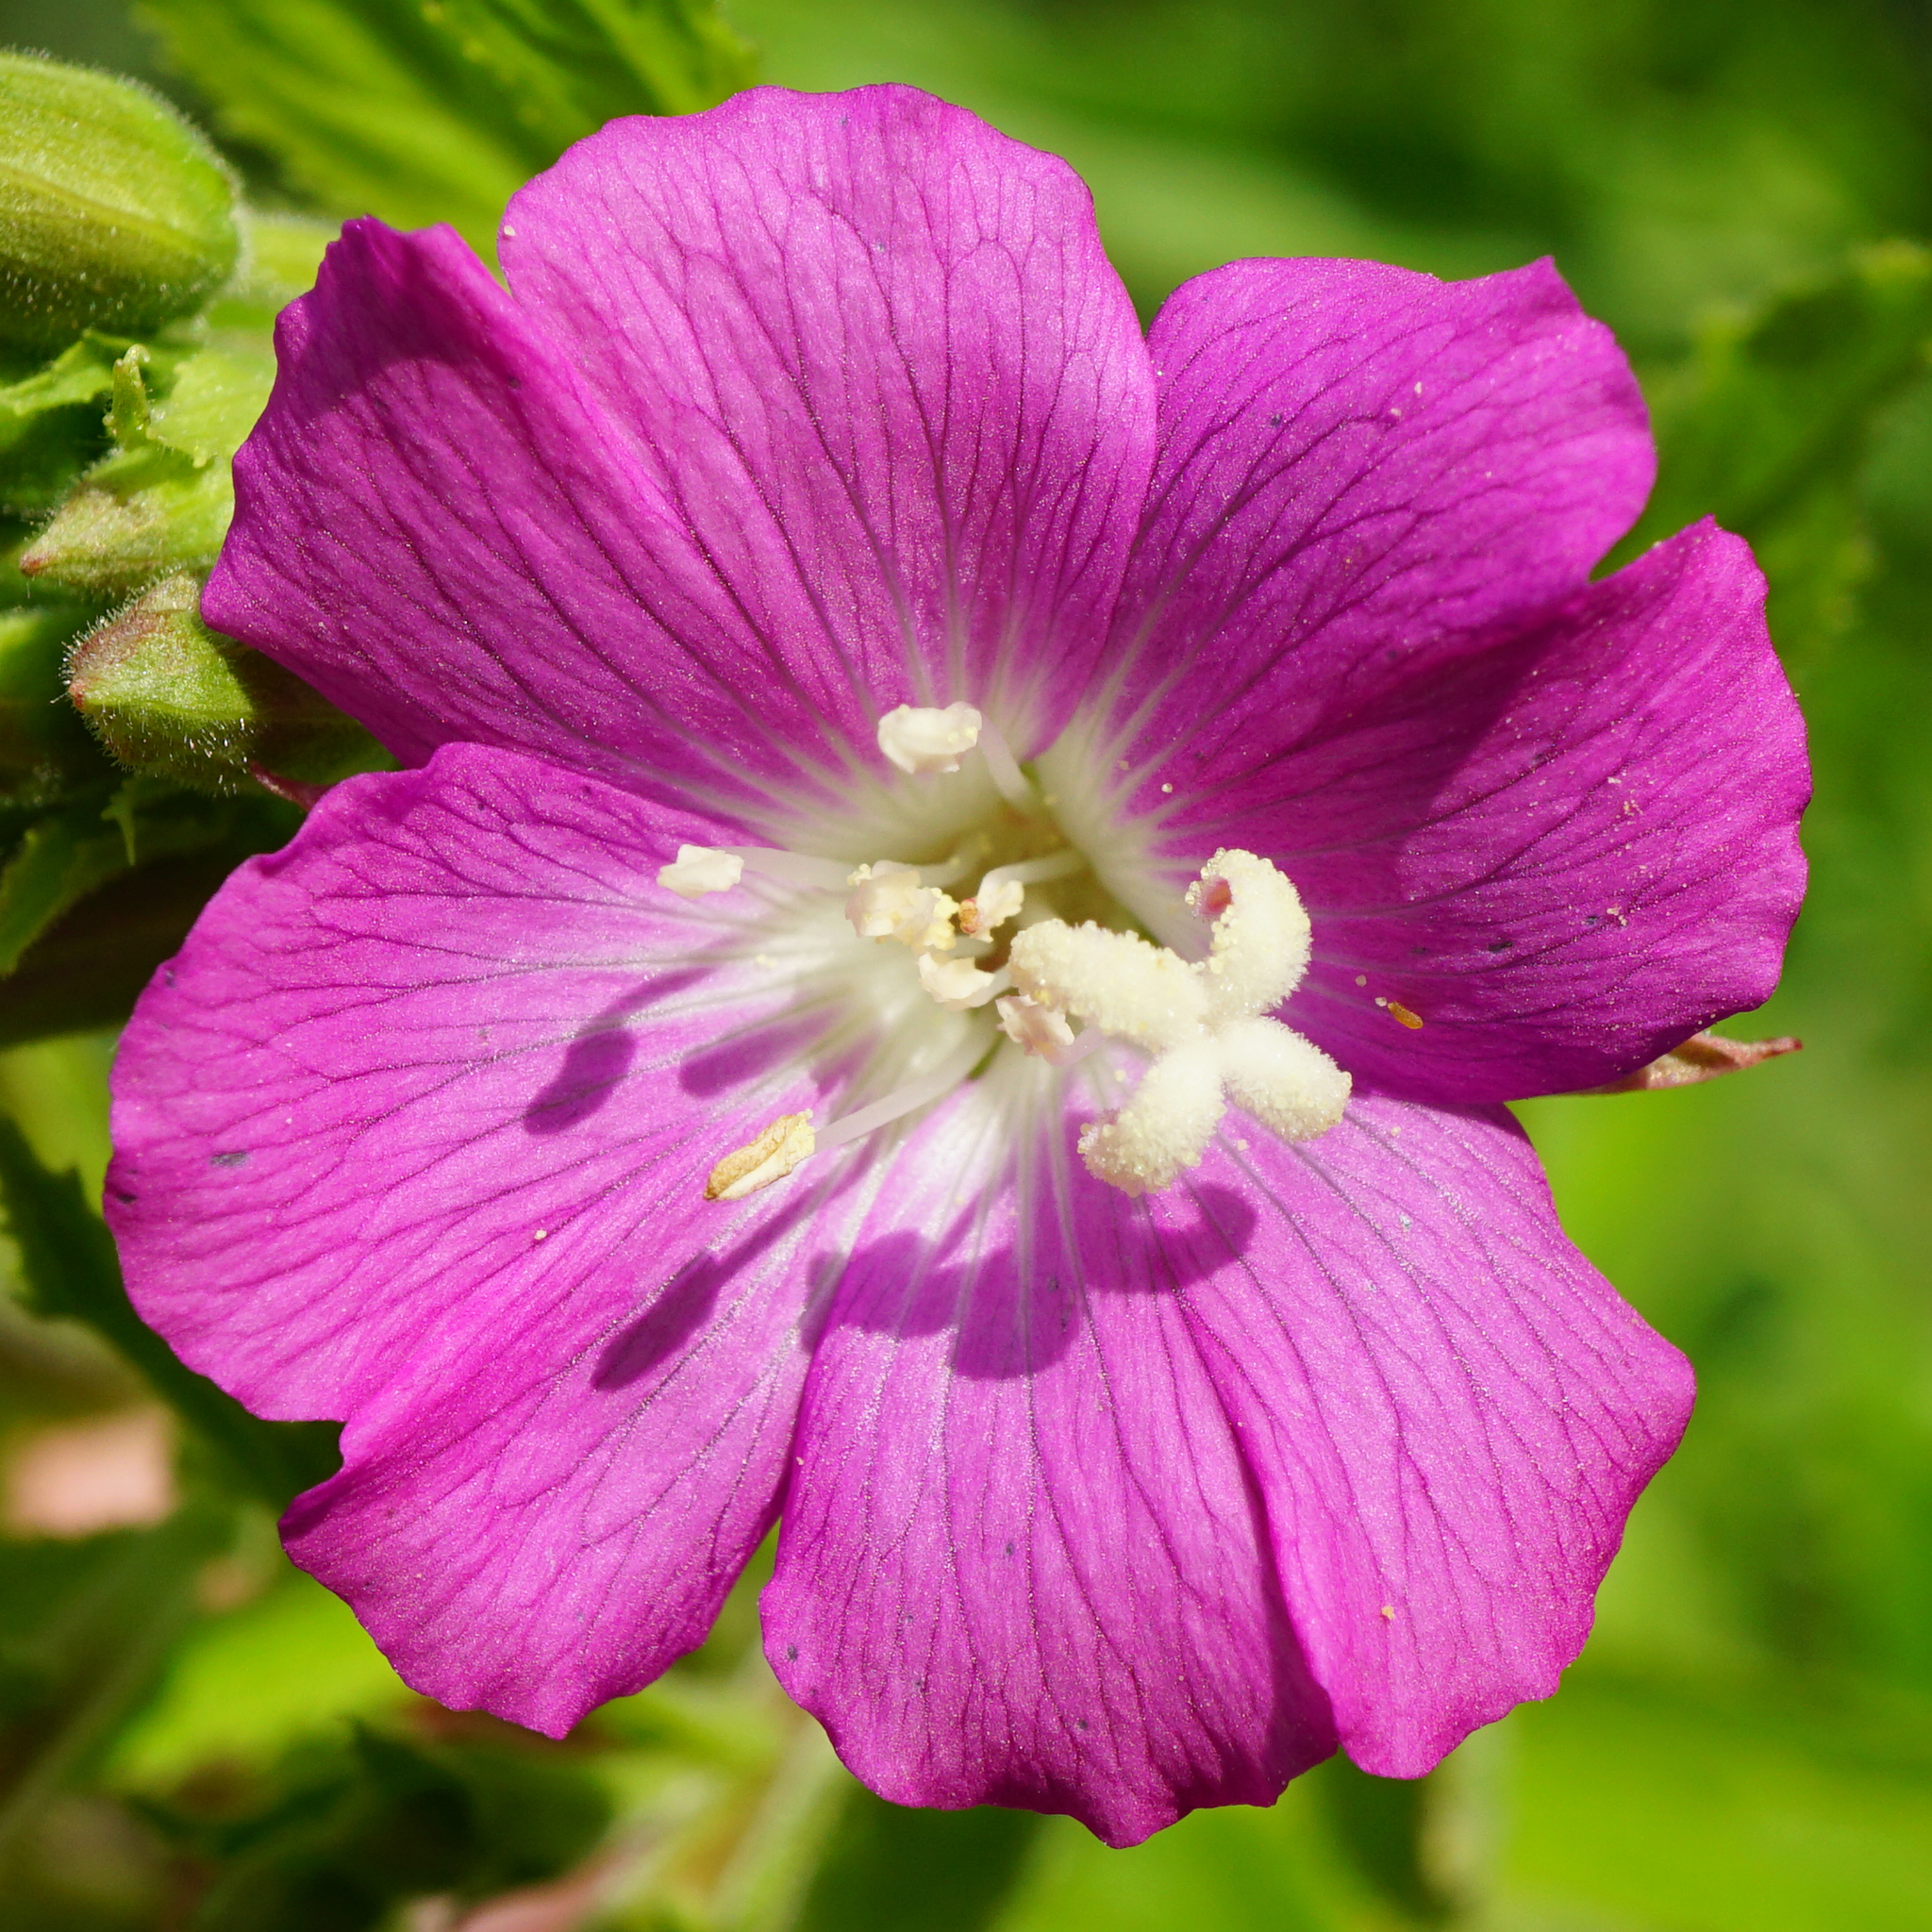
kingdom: Plantae
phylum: Tracheophyta
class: Magnoliopsida
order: Myrtales
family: Onagraceae
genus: Epilobium
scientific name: Epilobium hirsutum
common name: Great willowherb
